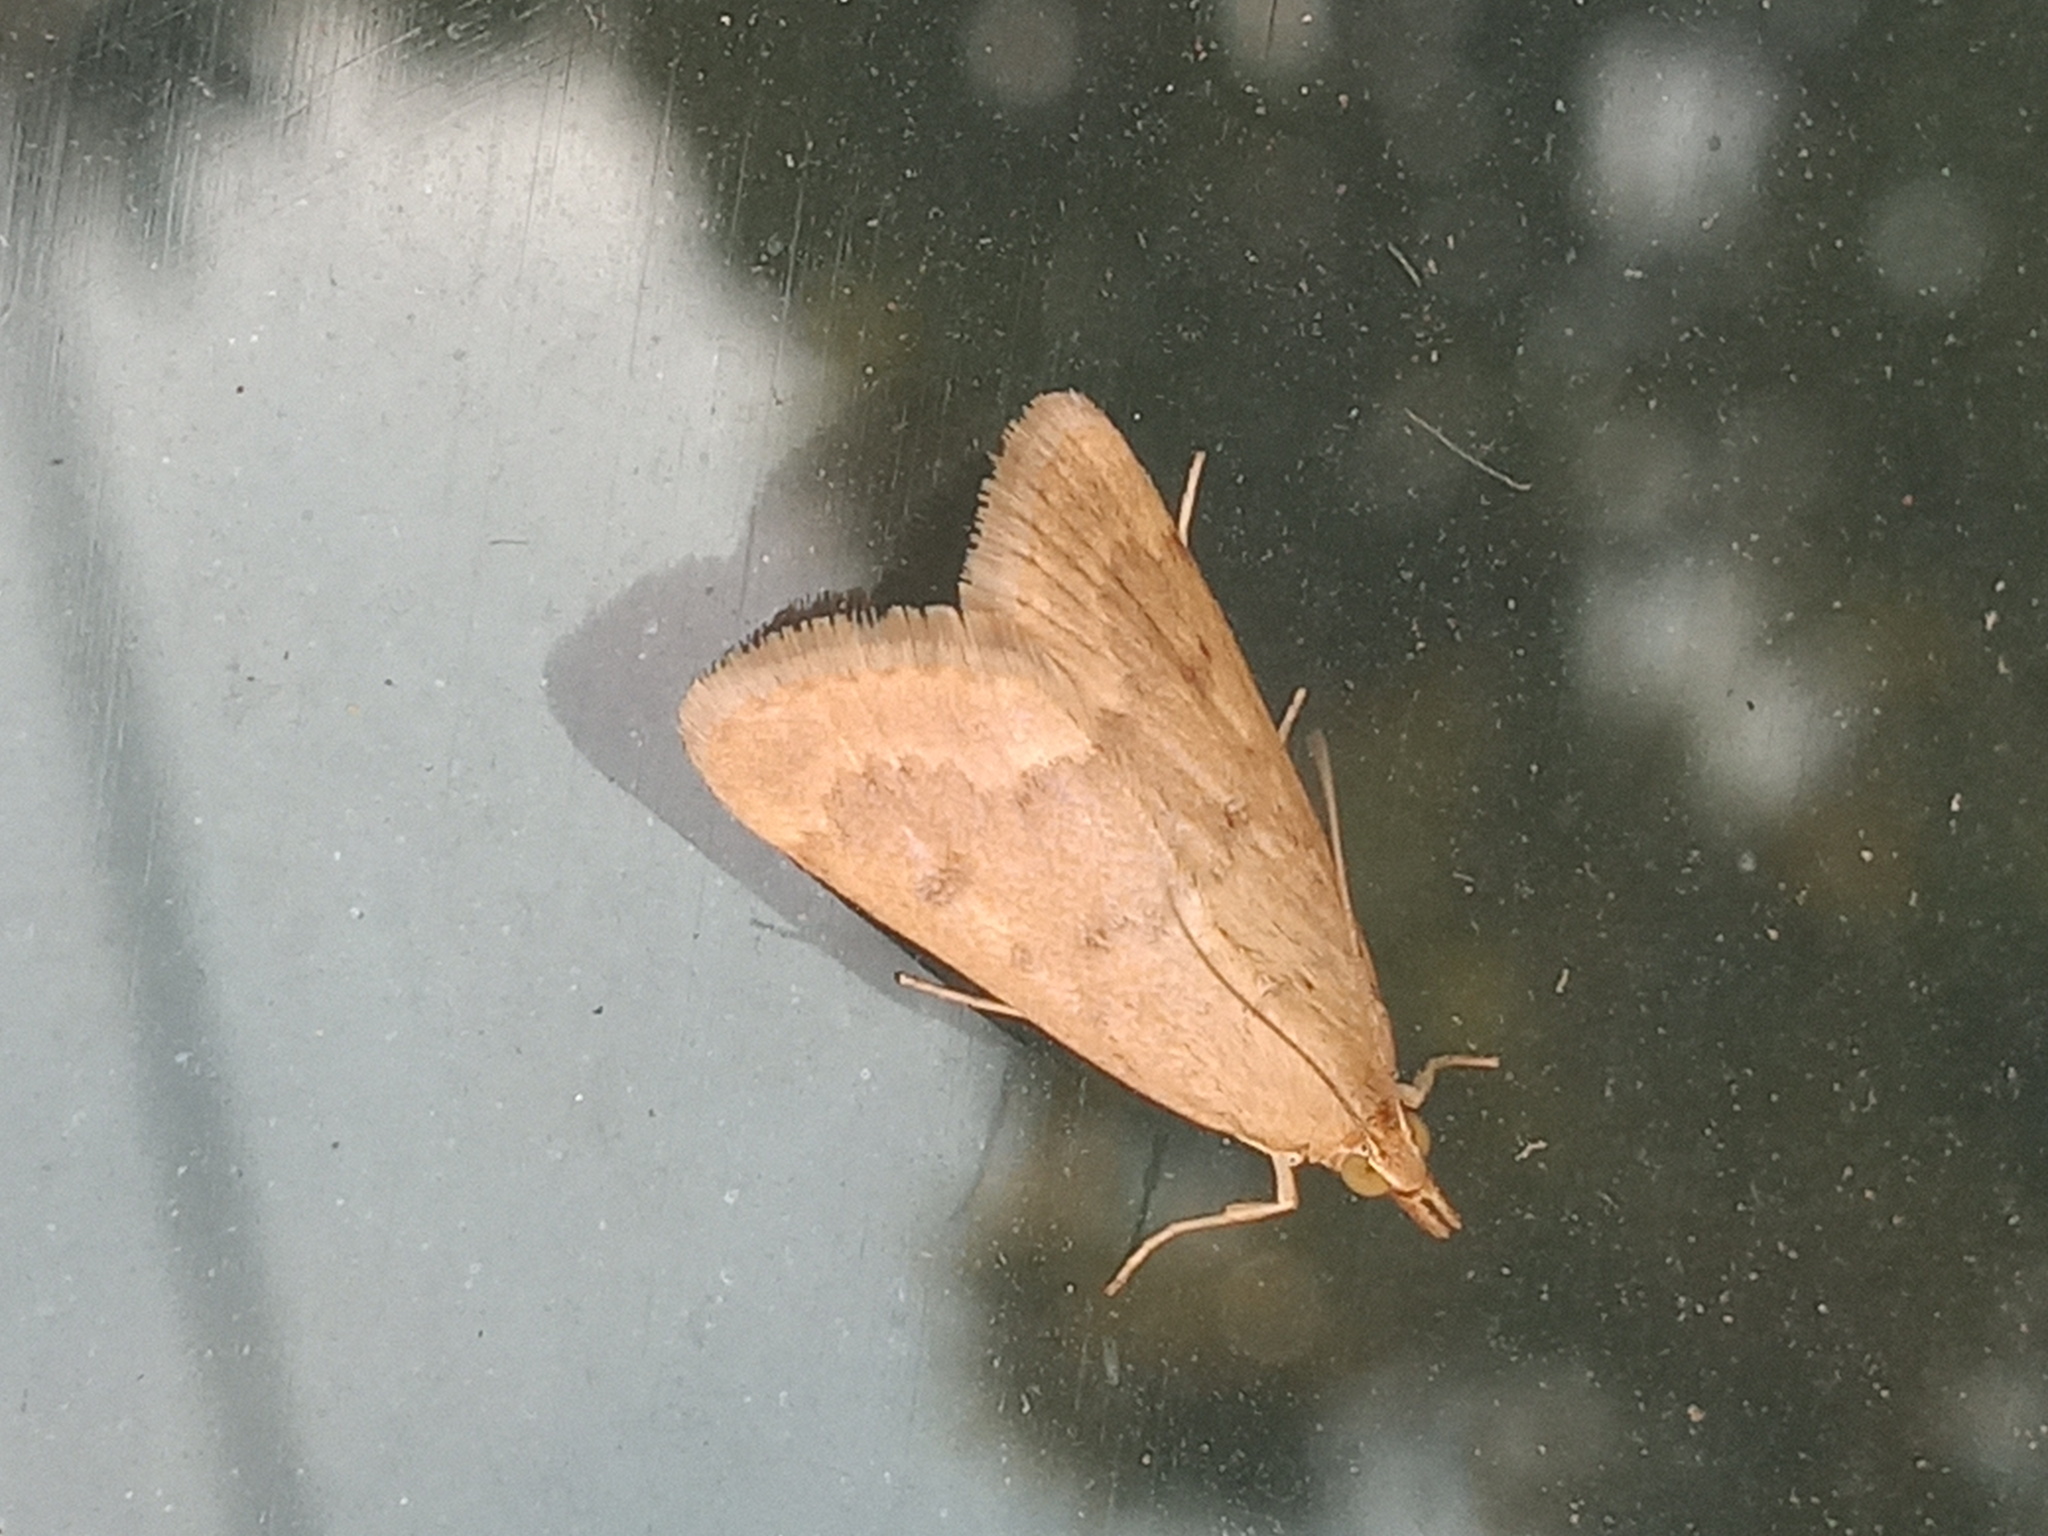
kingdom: Animalia
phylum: Arthropoda
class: Insecta
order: Lepidoptera
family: Crambidae
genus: Achyra
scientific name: Achyra rantalis
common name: Garden webworm
